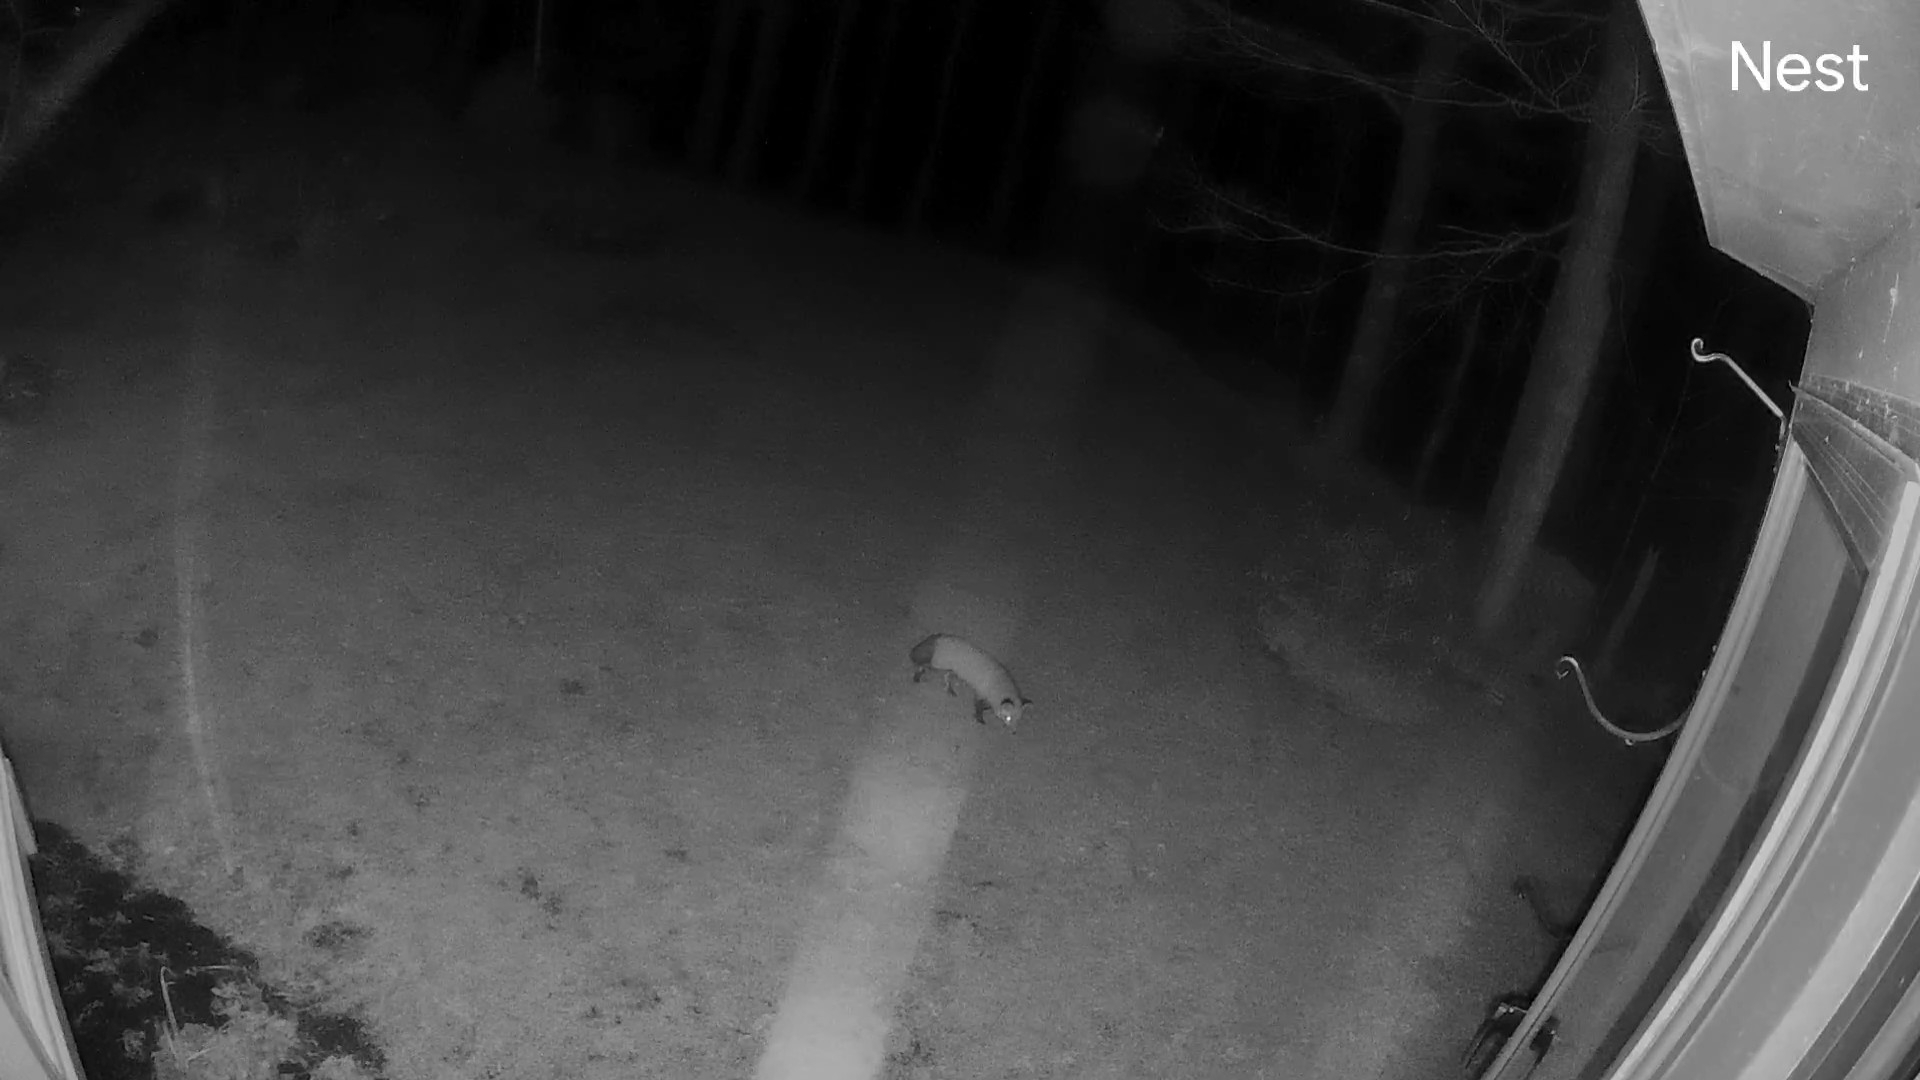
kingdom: Animalia
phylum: Chordata
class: Mammalia
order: Carnivora
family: Canidae
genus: Vulpes
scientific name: Vulpes vulpes
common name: Red fox
